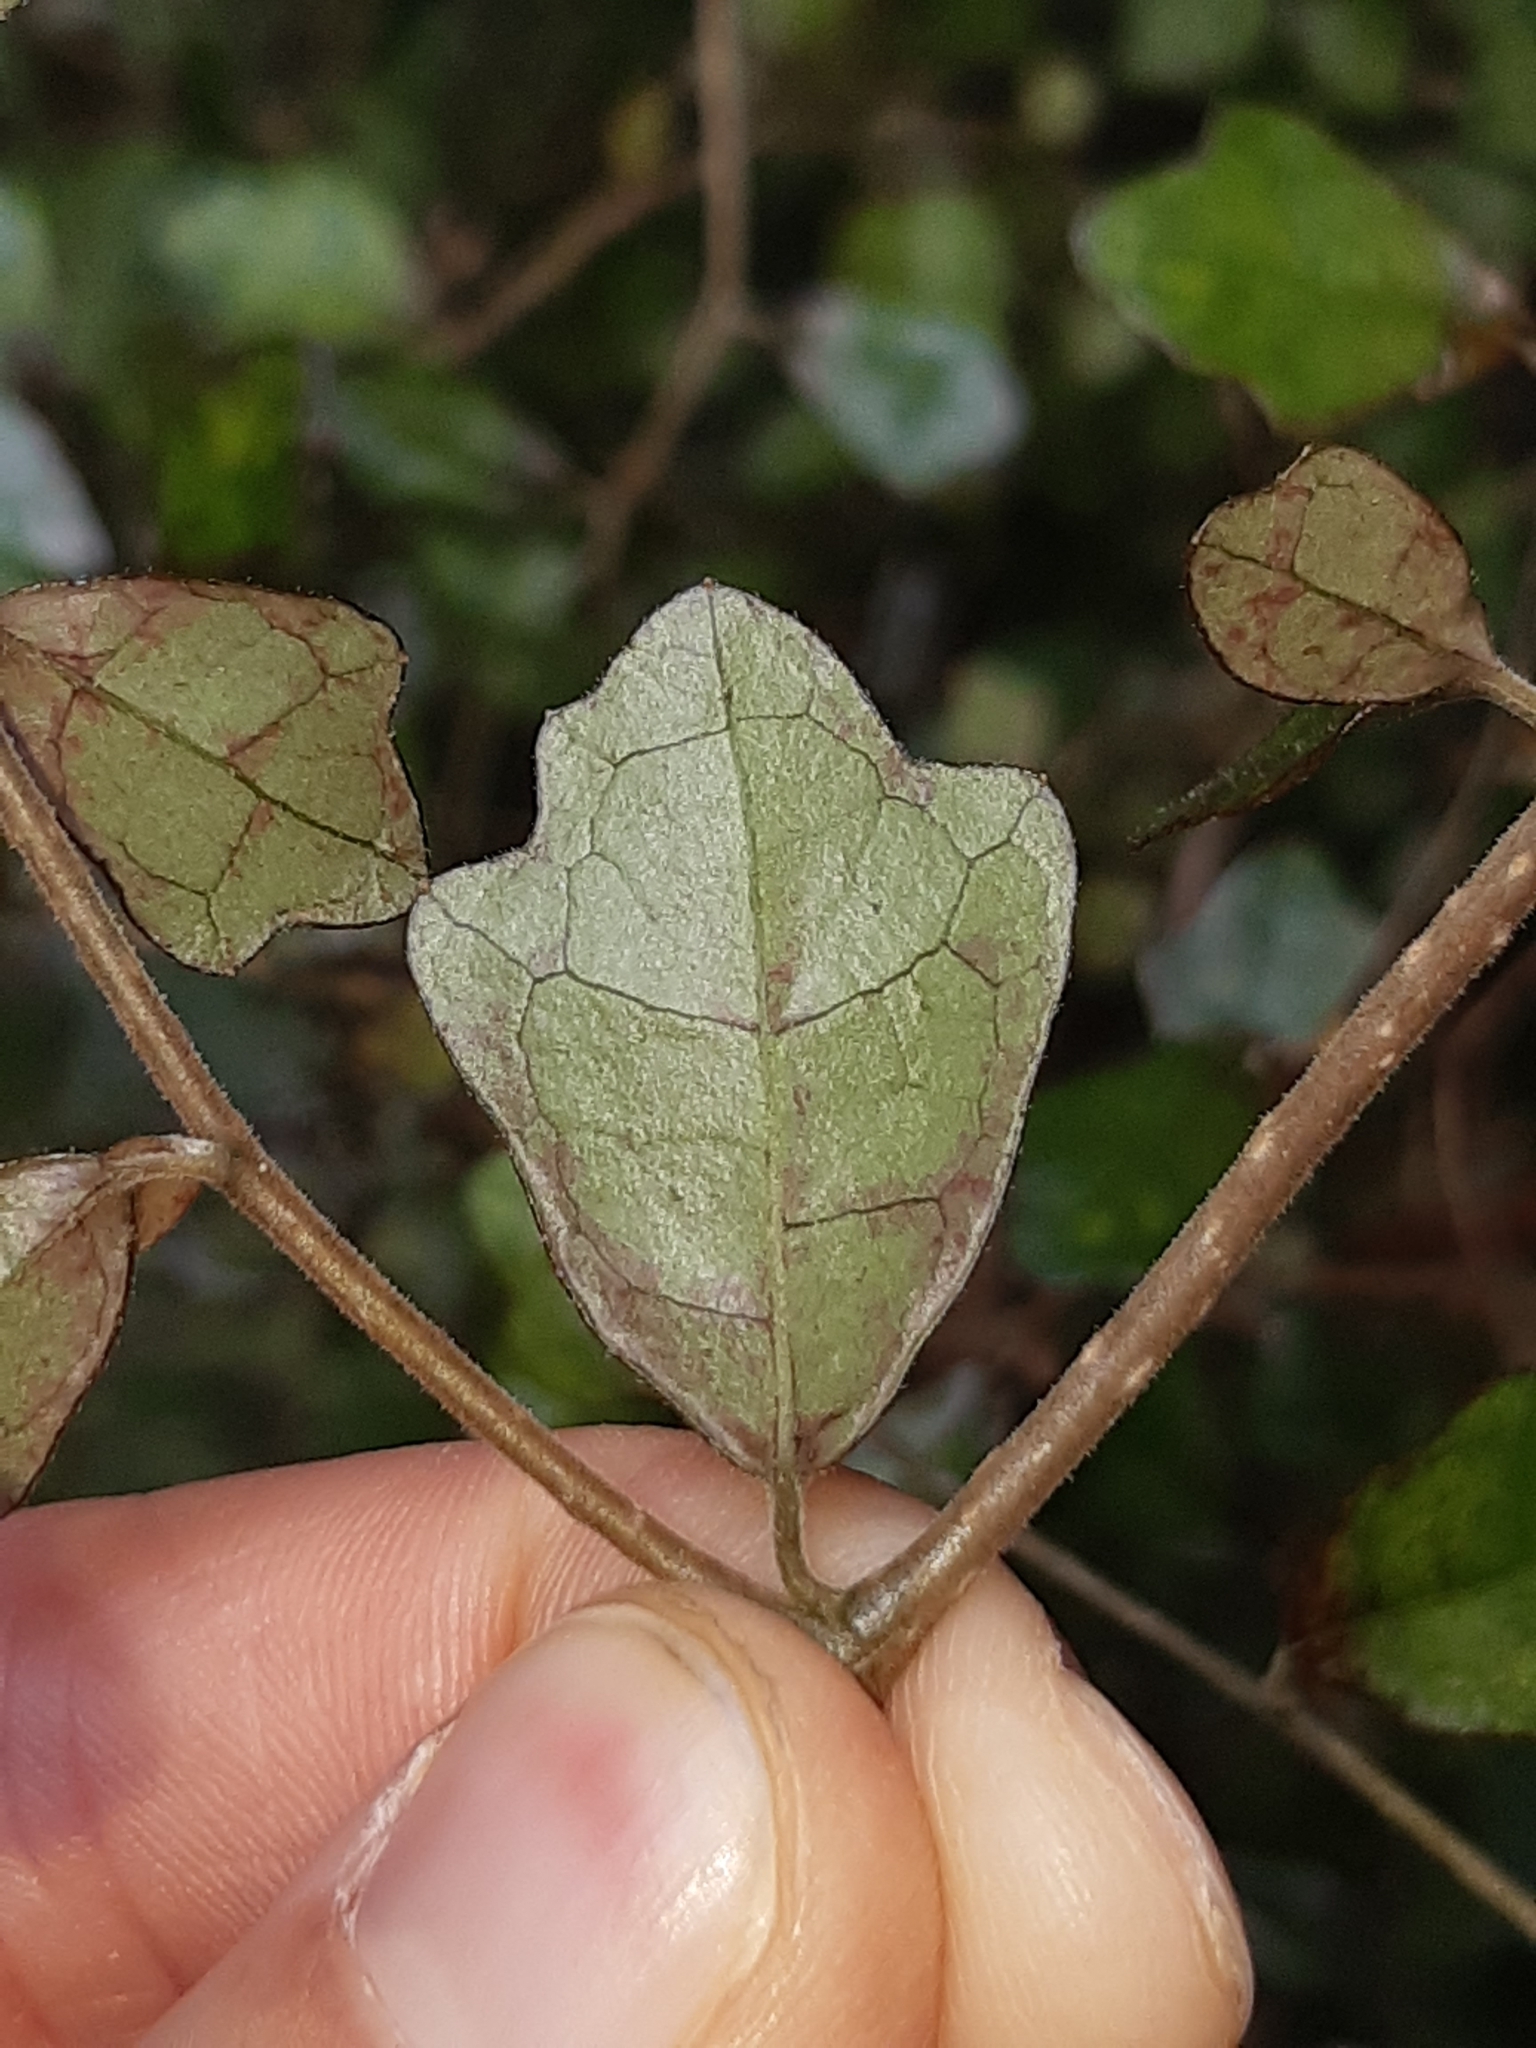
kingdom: Plantae
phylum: Tracheophyta
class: Magnoliopsida
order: Apiales
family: Pennantiaceae
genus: Pennantia
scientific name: Pennantia corymbosa
